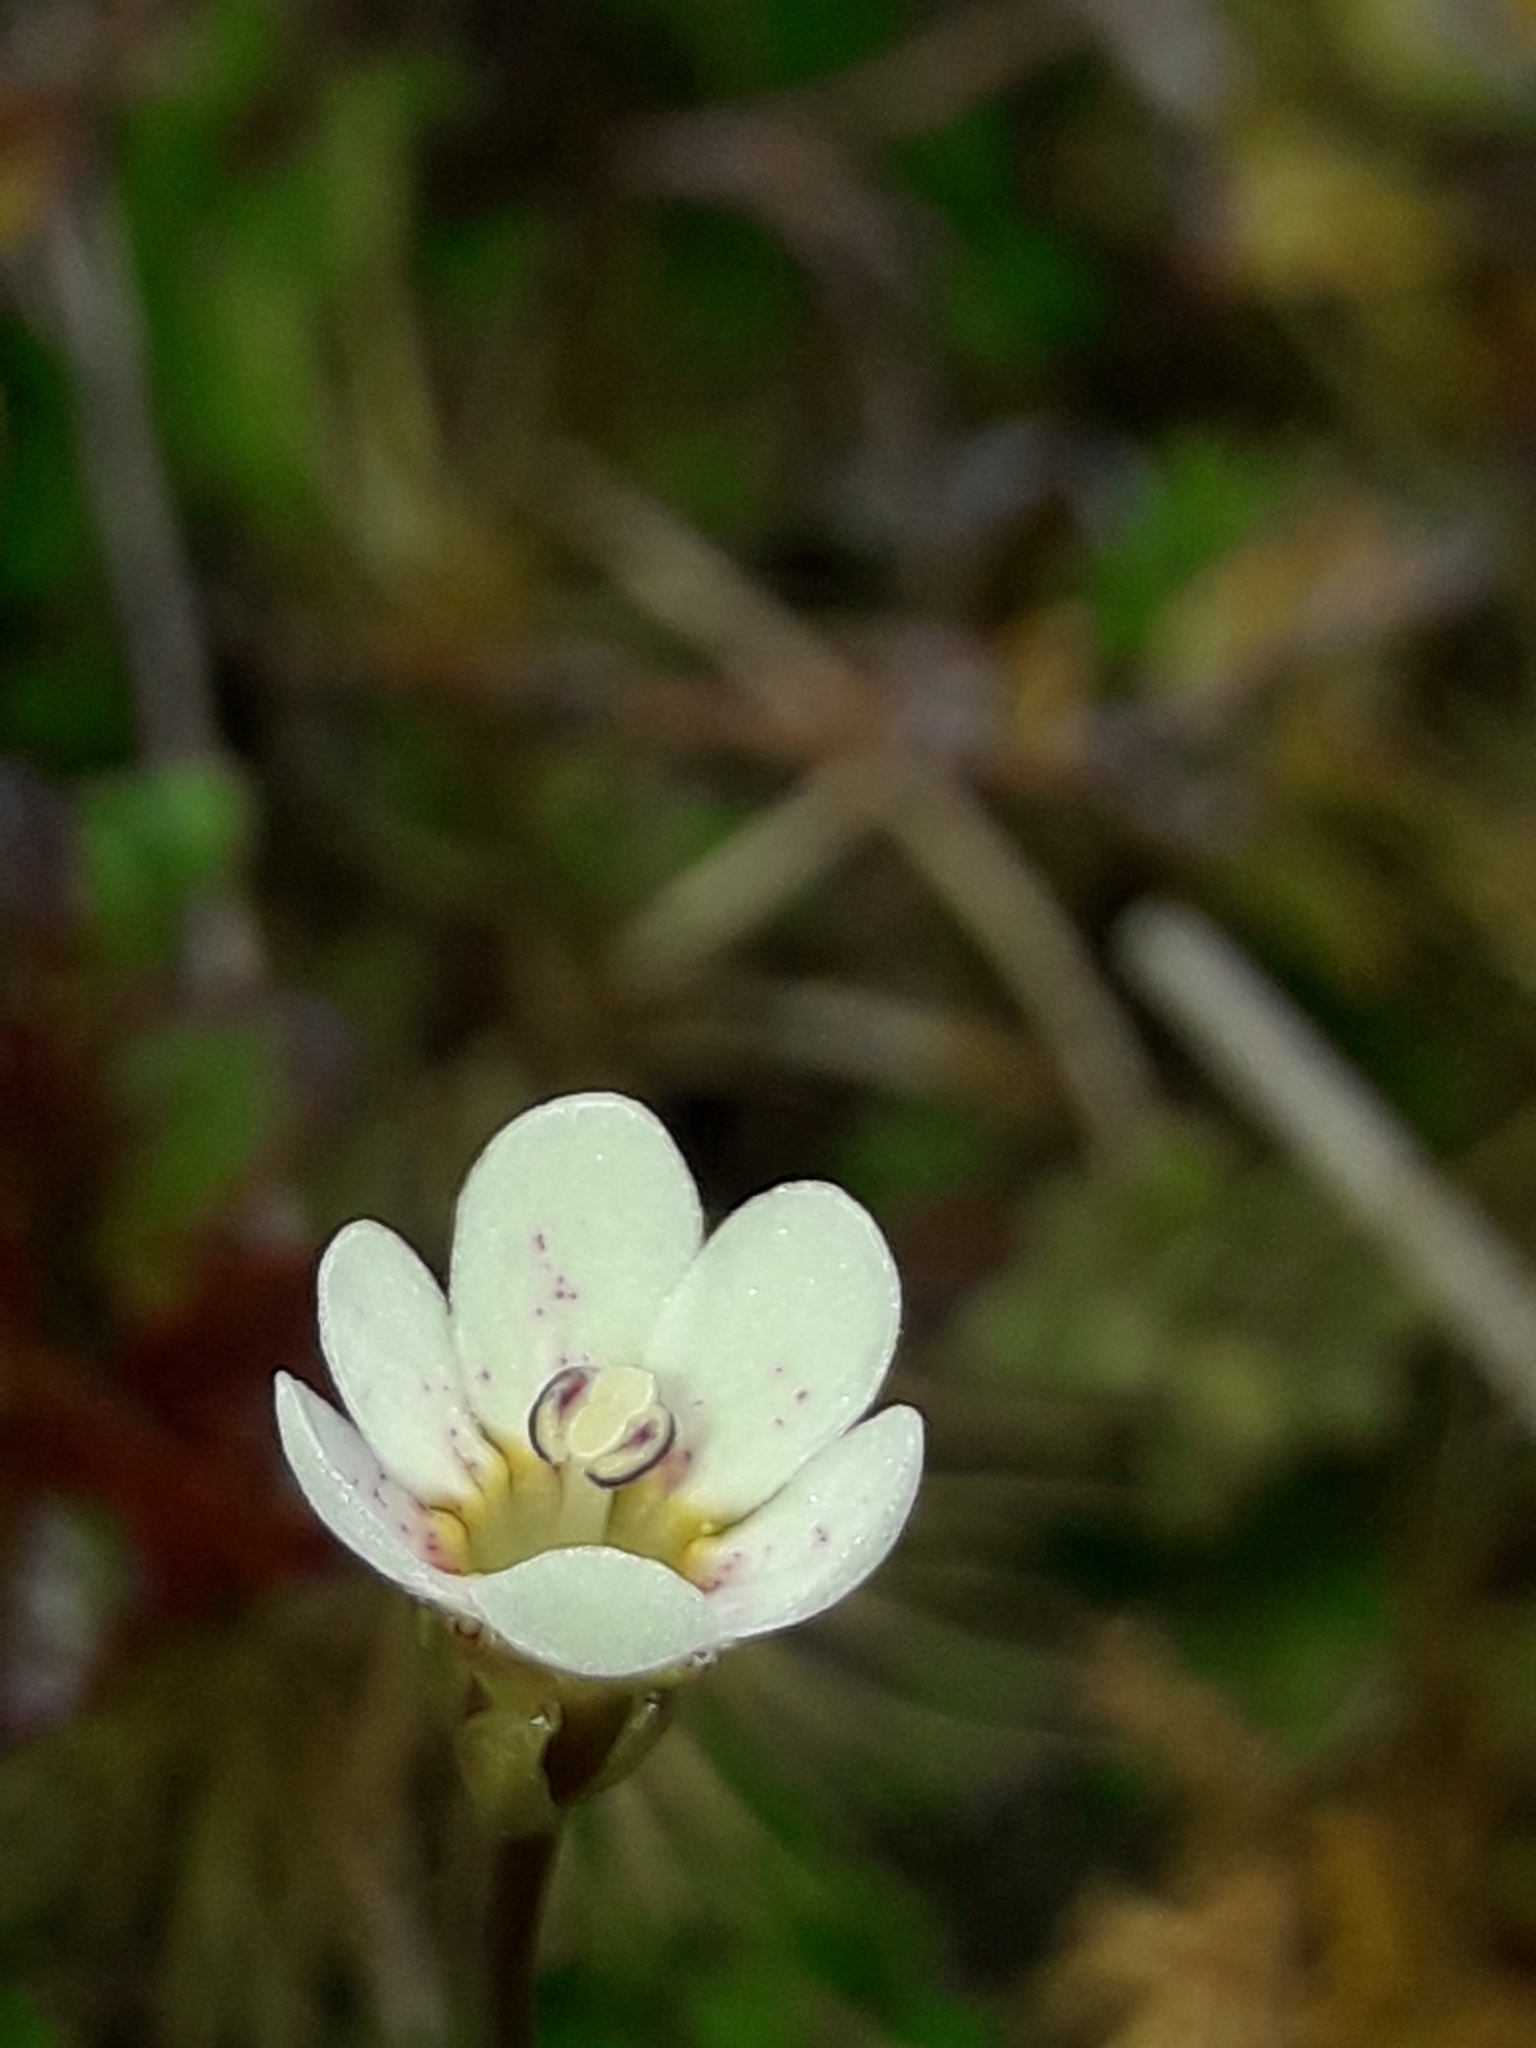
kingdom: Plantae
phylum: Tracheophyta
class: Magnoliopsida
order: Asterales
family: Stylidiaceae
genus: Forstera
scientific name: Forstera tenella
